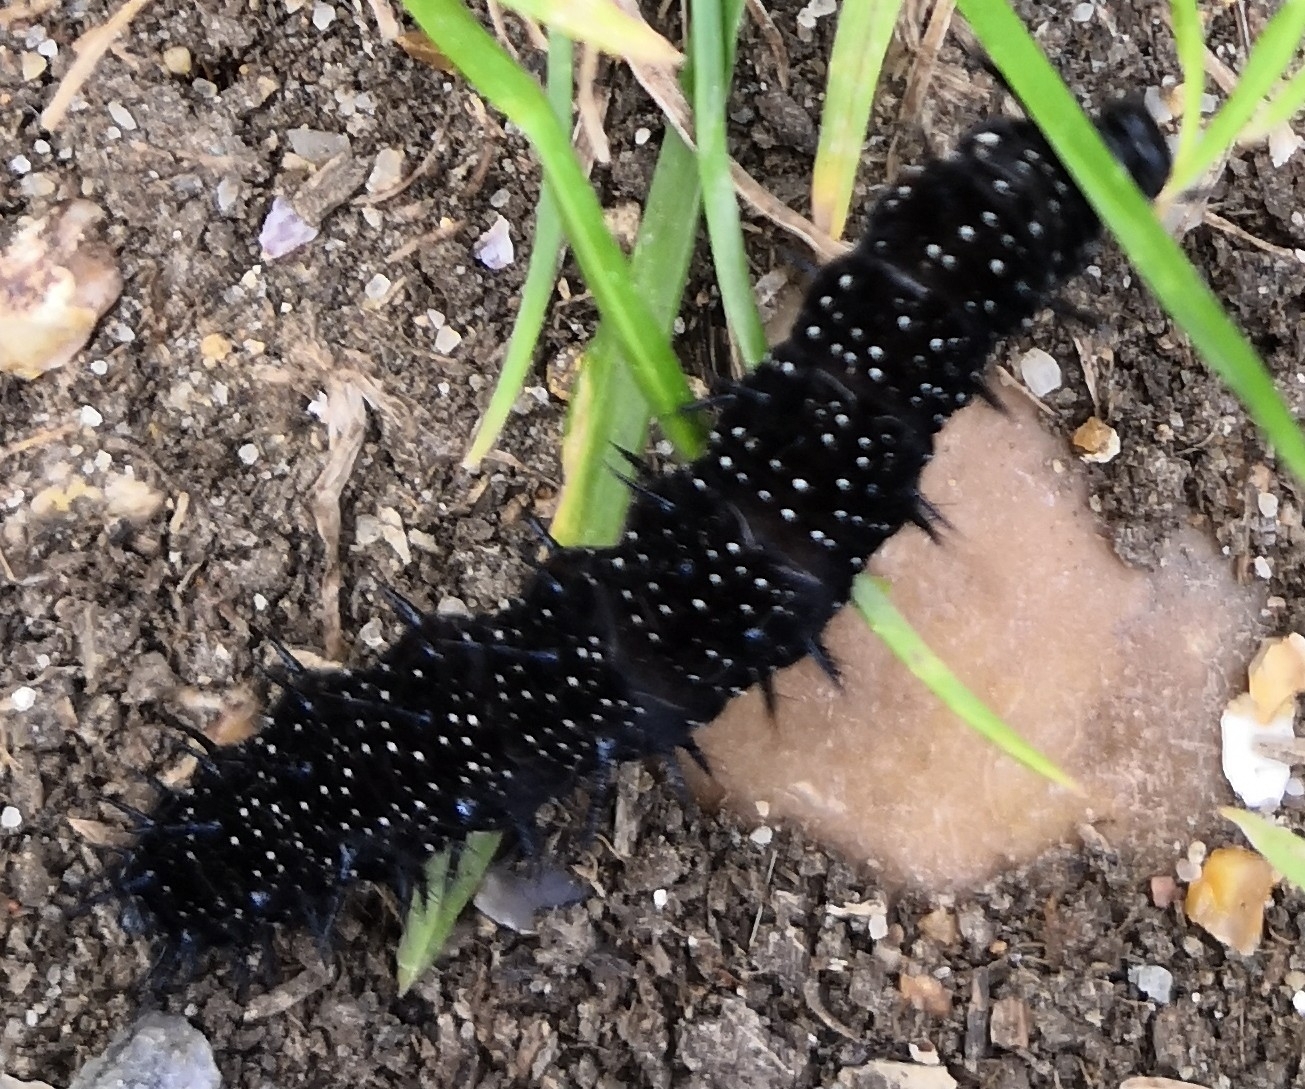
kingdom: Animalia
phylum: Arthropoda
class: Insecta
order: Lepidoptera
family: Nymphalidae
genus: Aglais
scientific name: Aglais io
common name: Peacock
